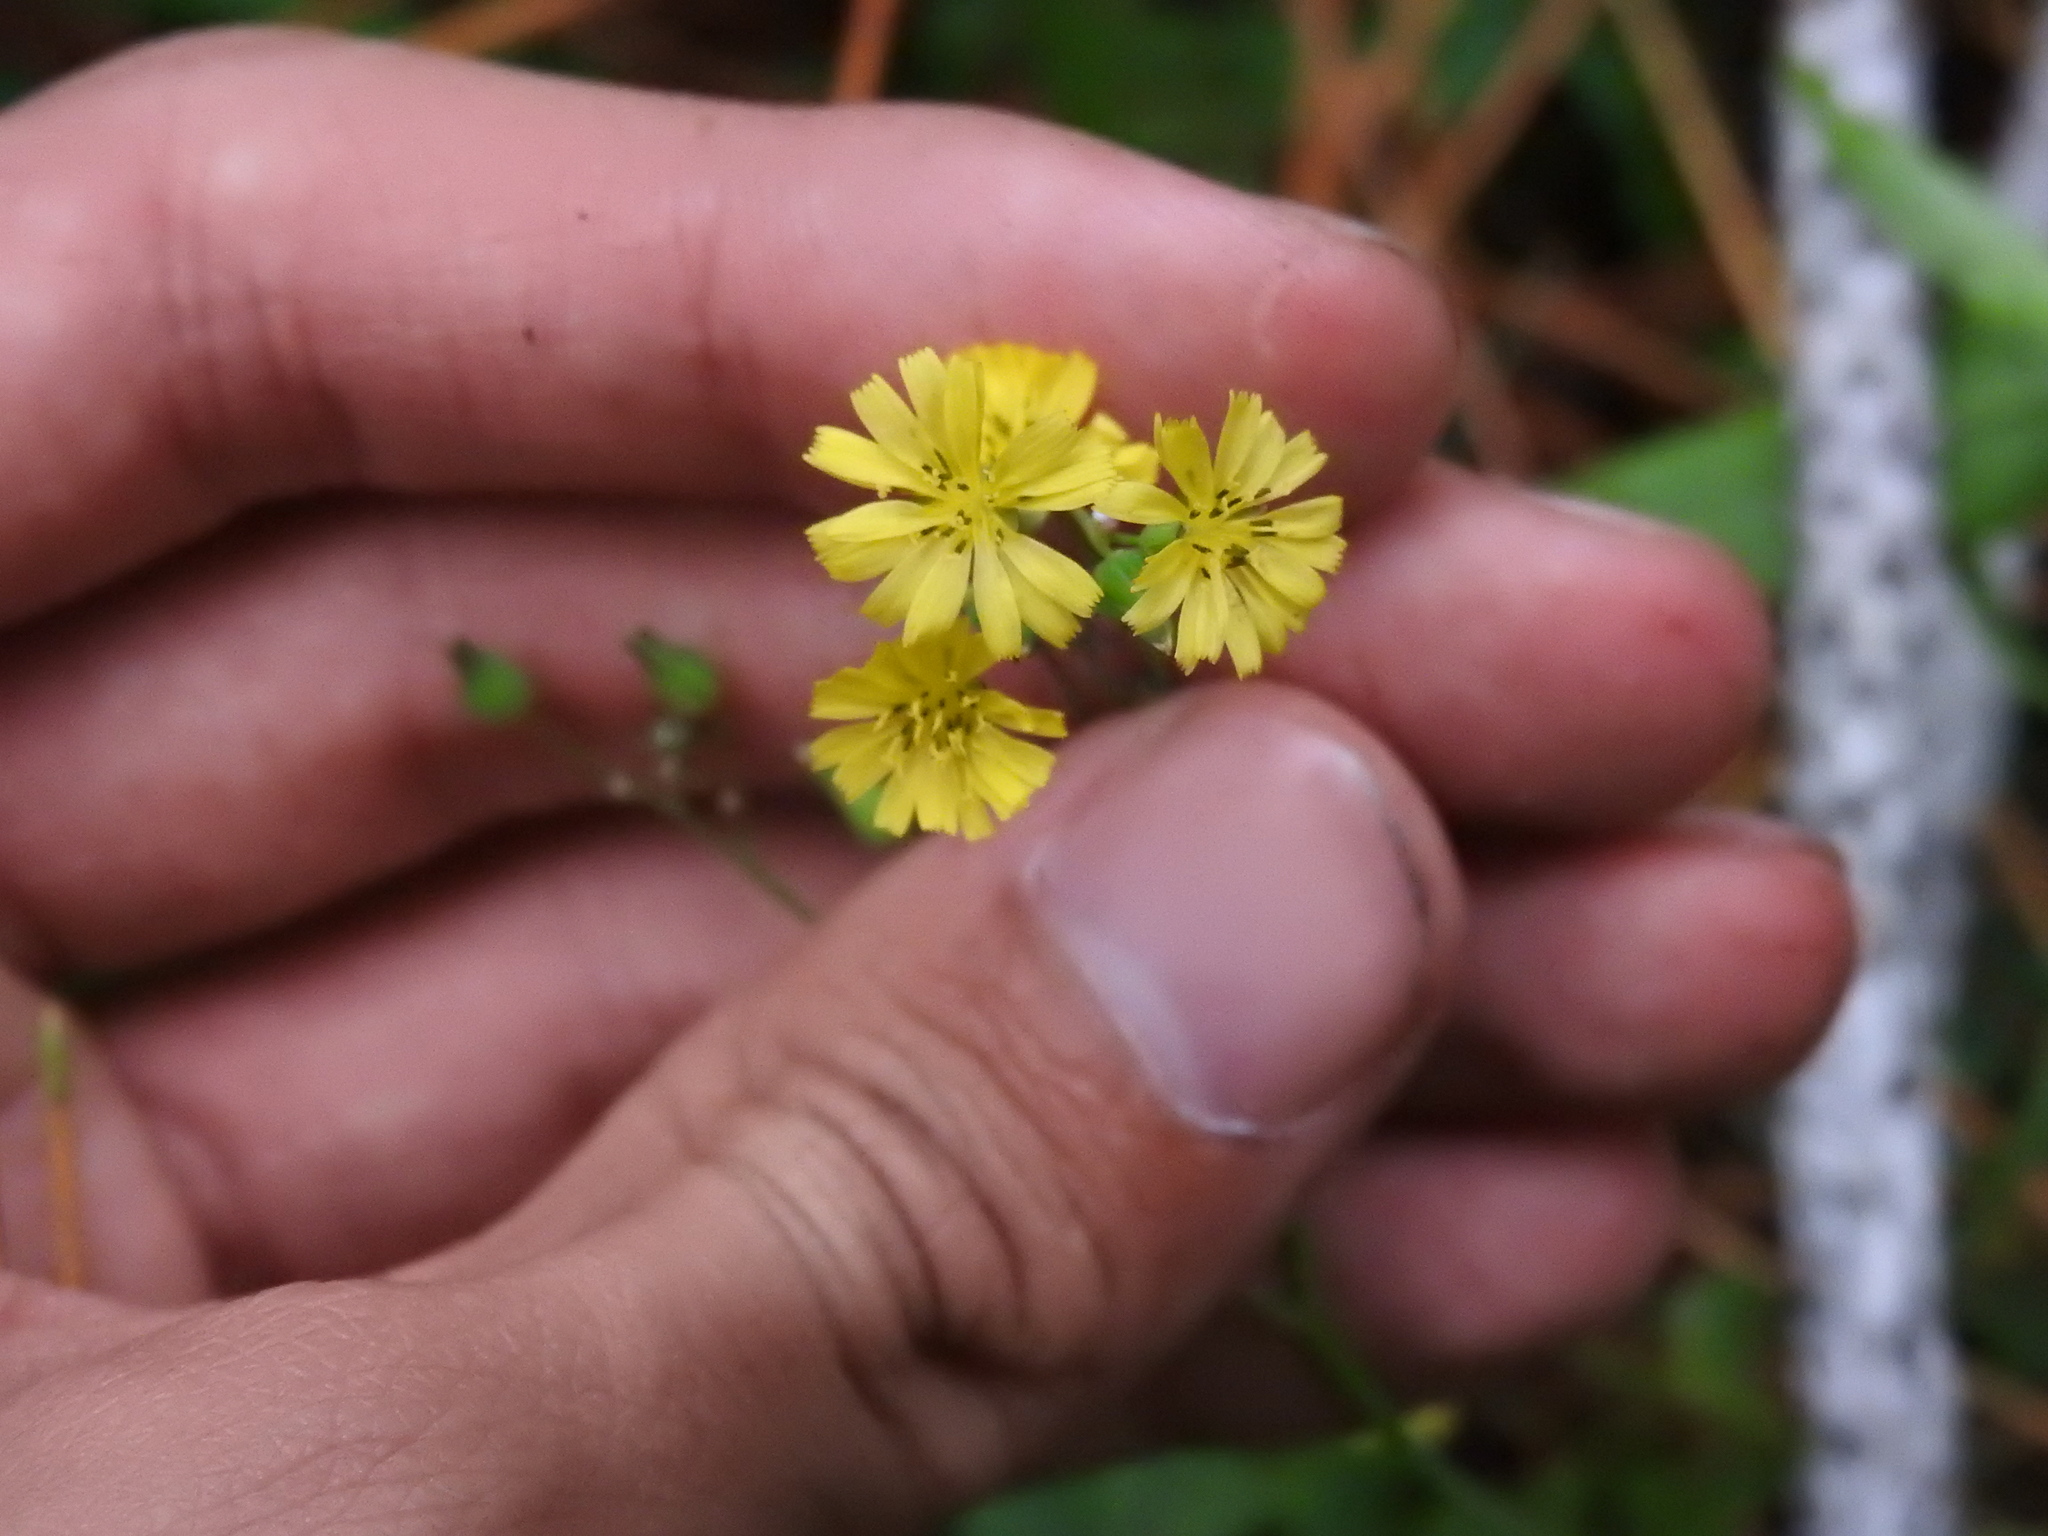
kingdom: Plantae
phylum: Tracheophyta
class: Magnoliopsida
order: Asterales
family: Asteraceae
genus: Youngia
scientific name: Youngia japonica
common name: Oriental false hawksbeard
